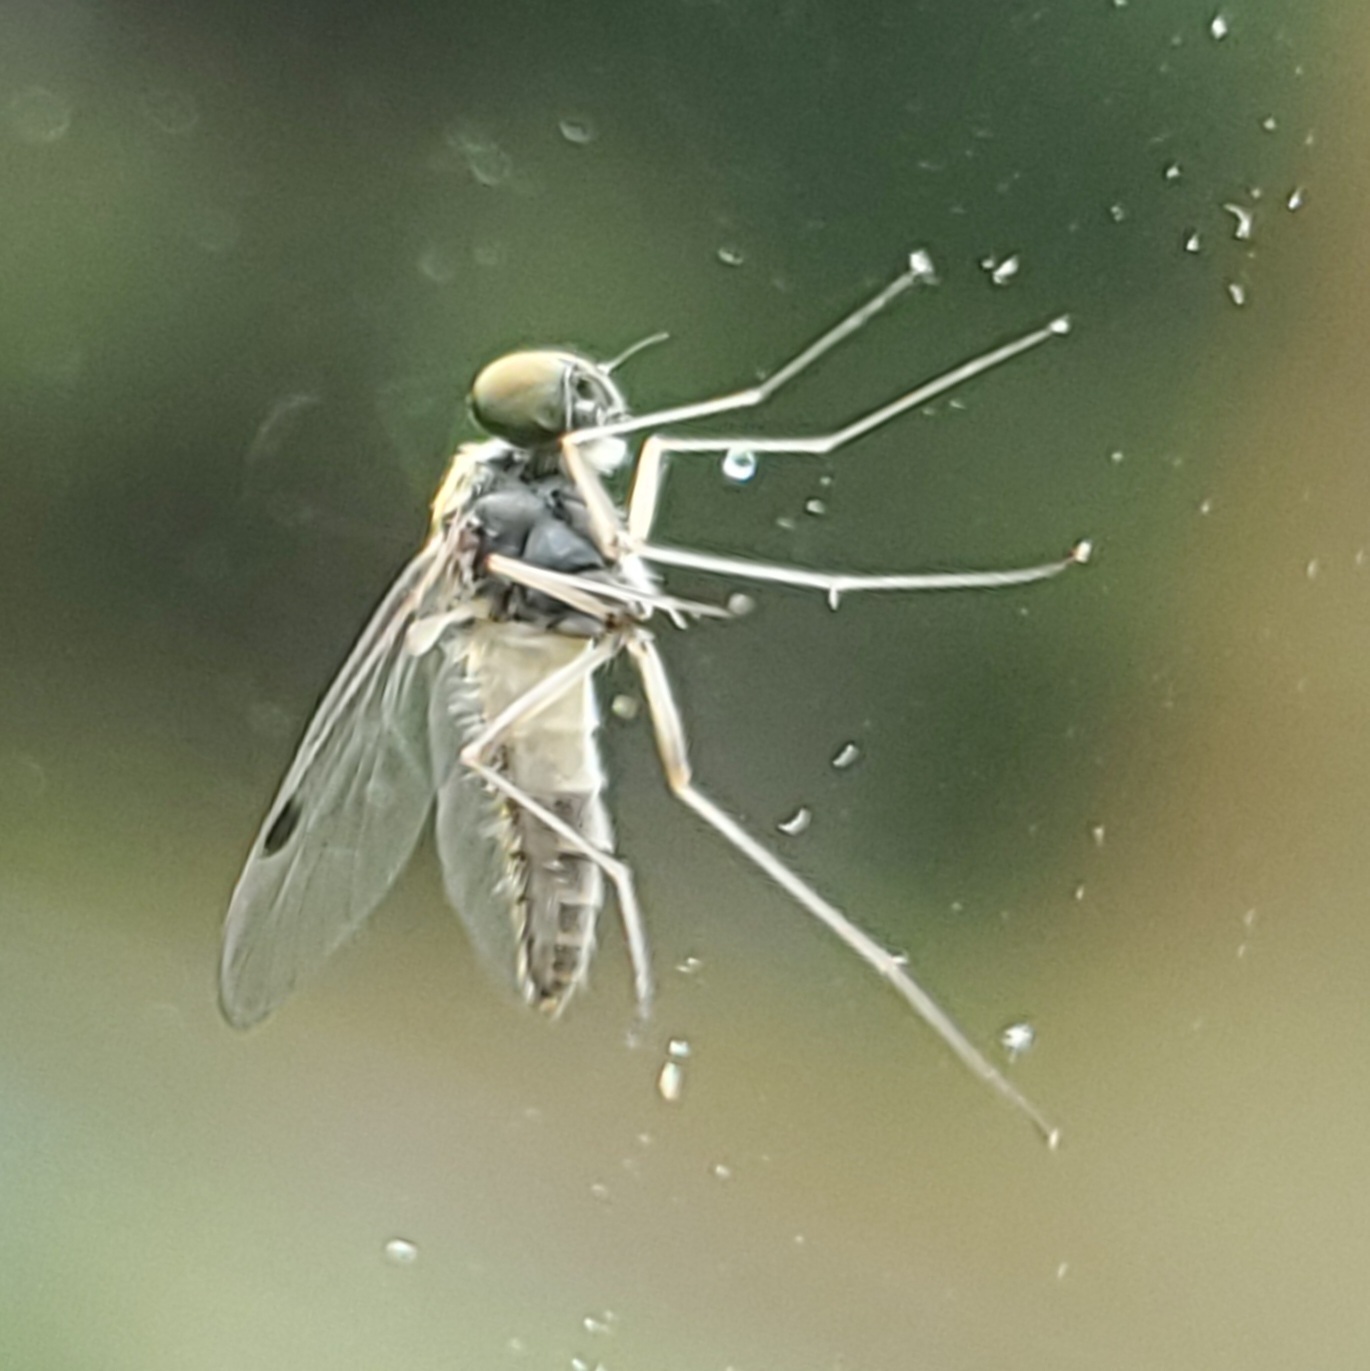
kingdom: Animalia
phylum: Arthropoda
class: Insecta
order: Diptera
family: Rhagionidae
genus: Chrysopilus
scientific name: Chrysopilus modestus
